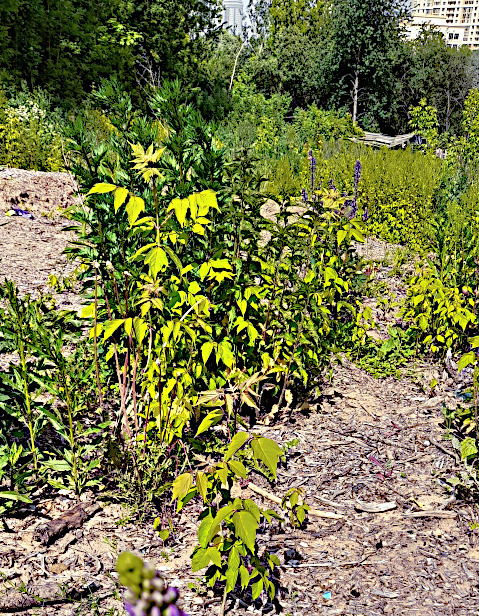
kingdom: Plantae
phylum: Tracheophyta
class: Magnoliopsida
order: Sapindales
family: Sapindaceae
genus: Acer
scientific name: Acer negundo
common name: Ashleaf maple
